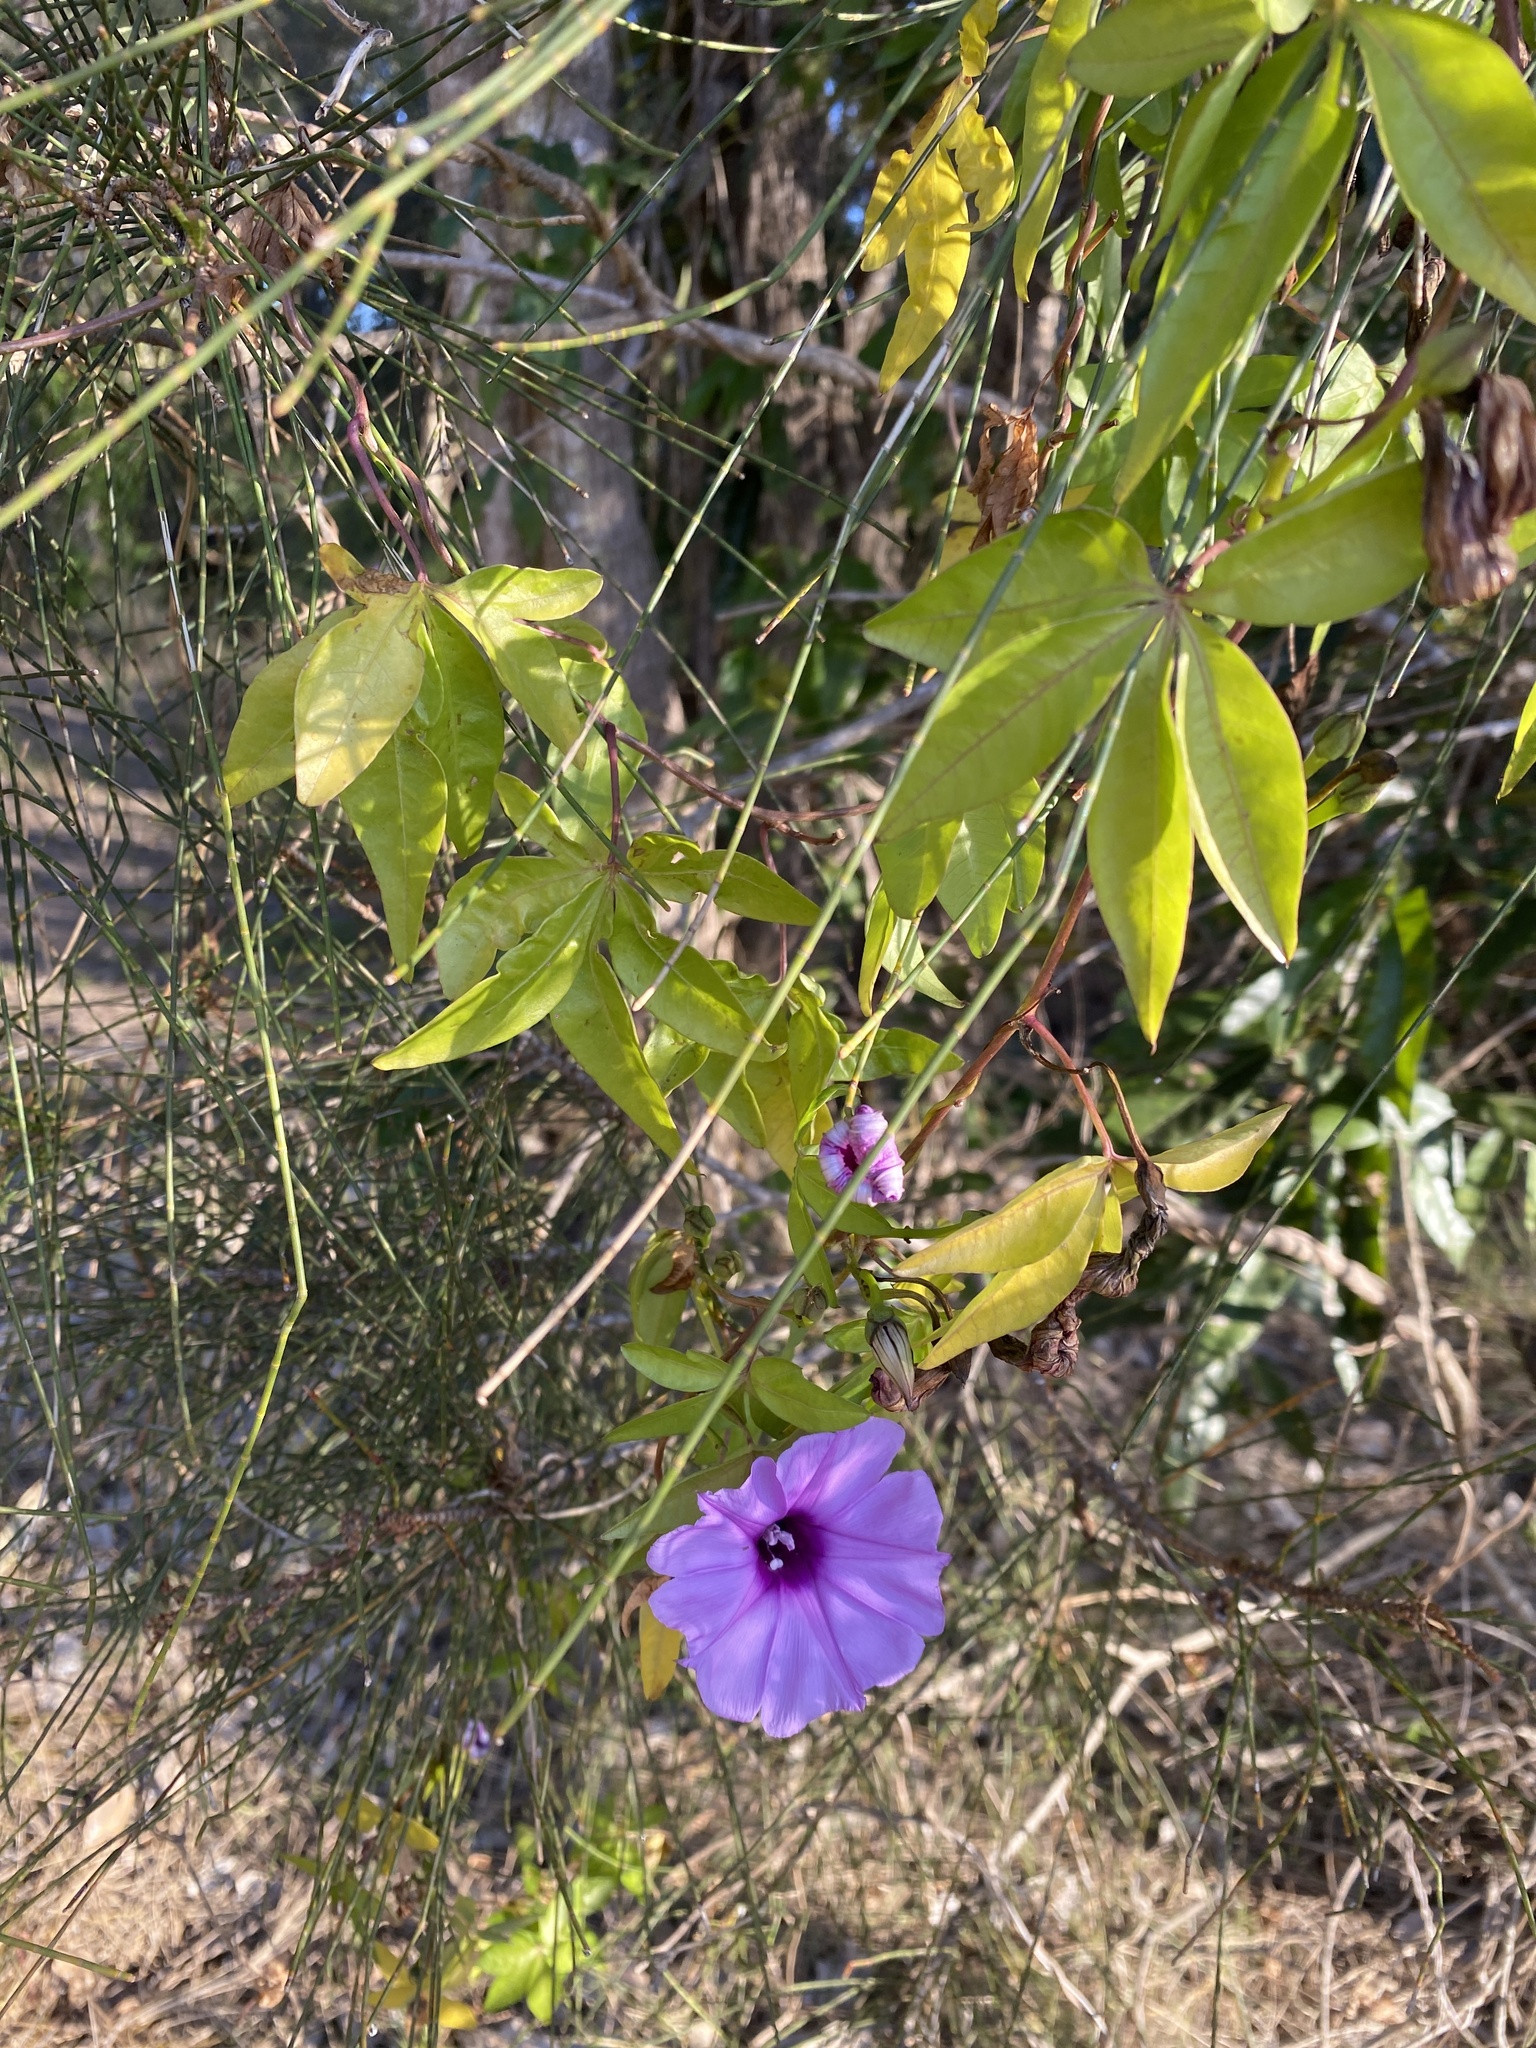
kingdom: Plantae
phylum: Tracheophyta
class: Magnoliopsida
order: Solanales
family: Convolvulaceae
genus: Ipomoea
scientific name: Ipomoea cairica
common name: Mile a minute vine
